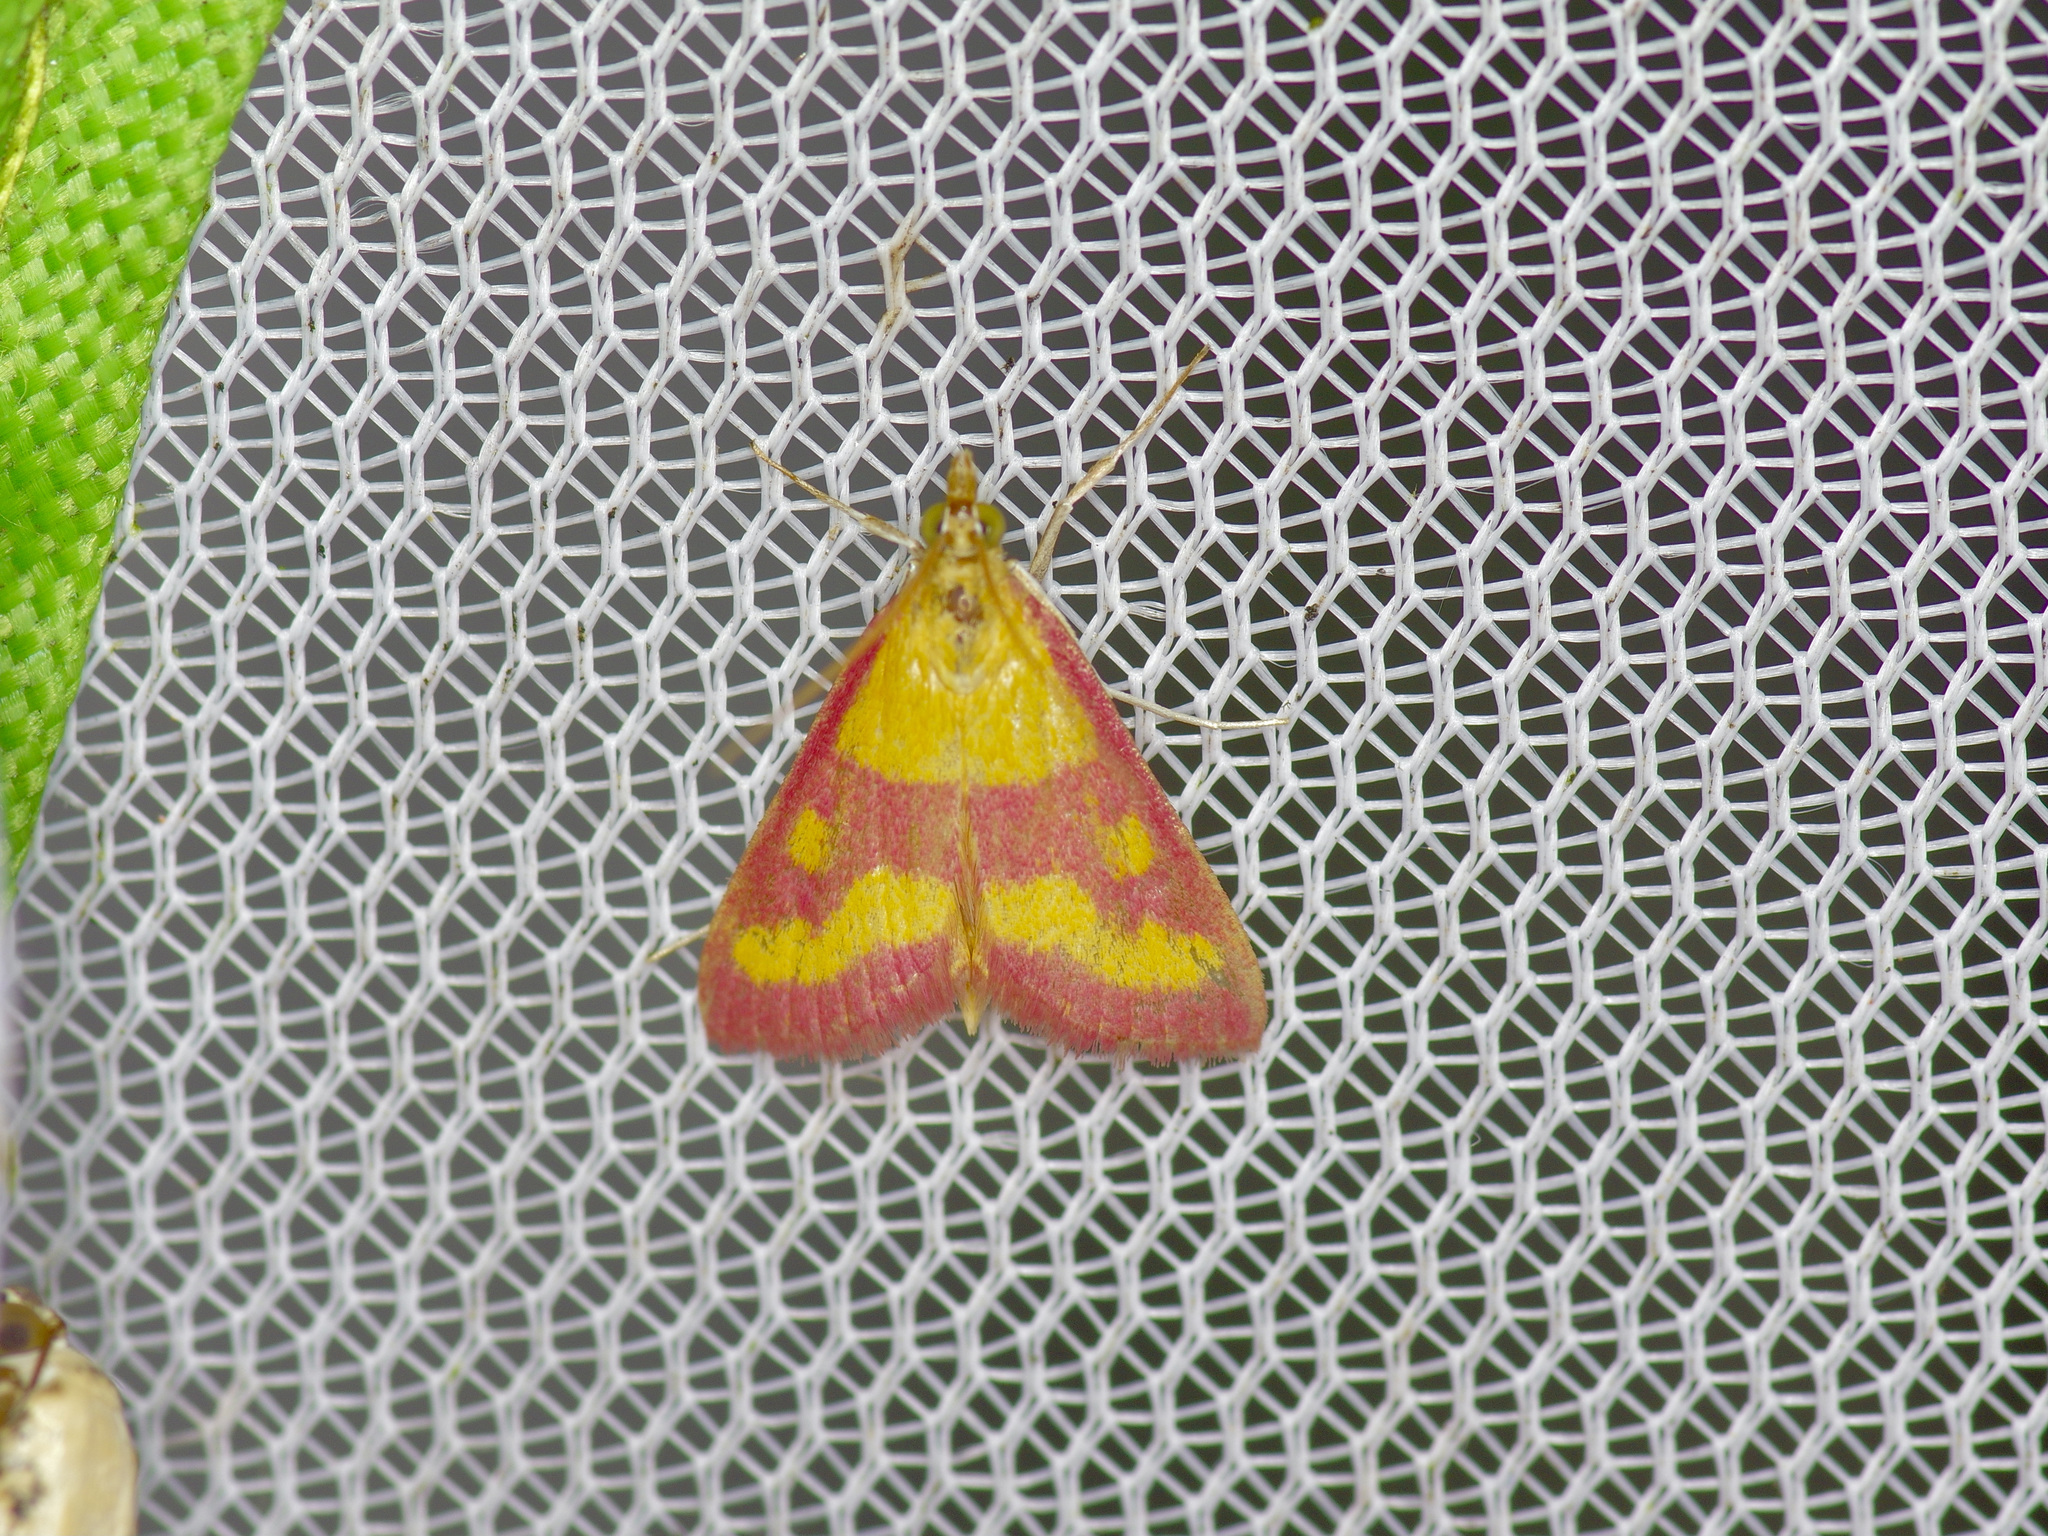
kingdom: Animalia
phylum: Arthropoda
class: Insecta
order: Lepidoptera
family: Crambidae
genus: Pyrausta
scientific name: Pyrausta laticlavia
